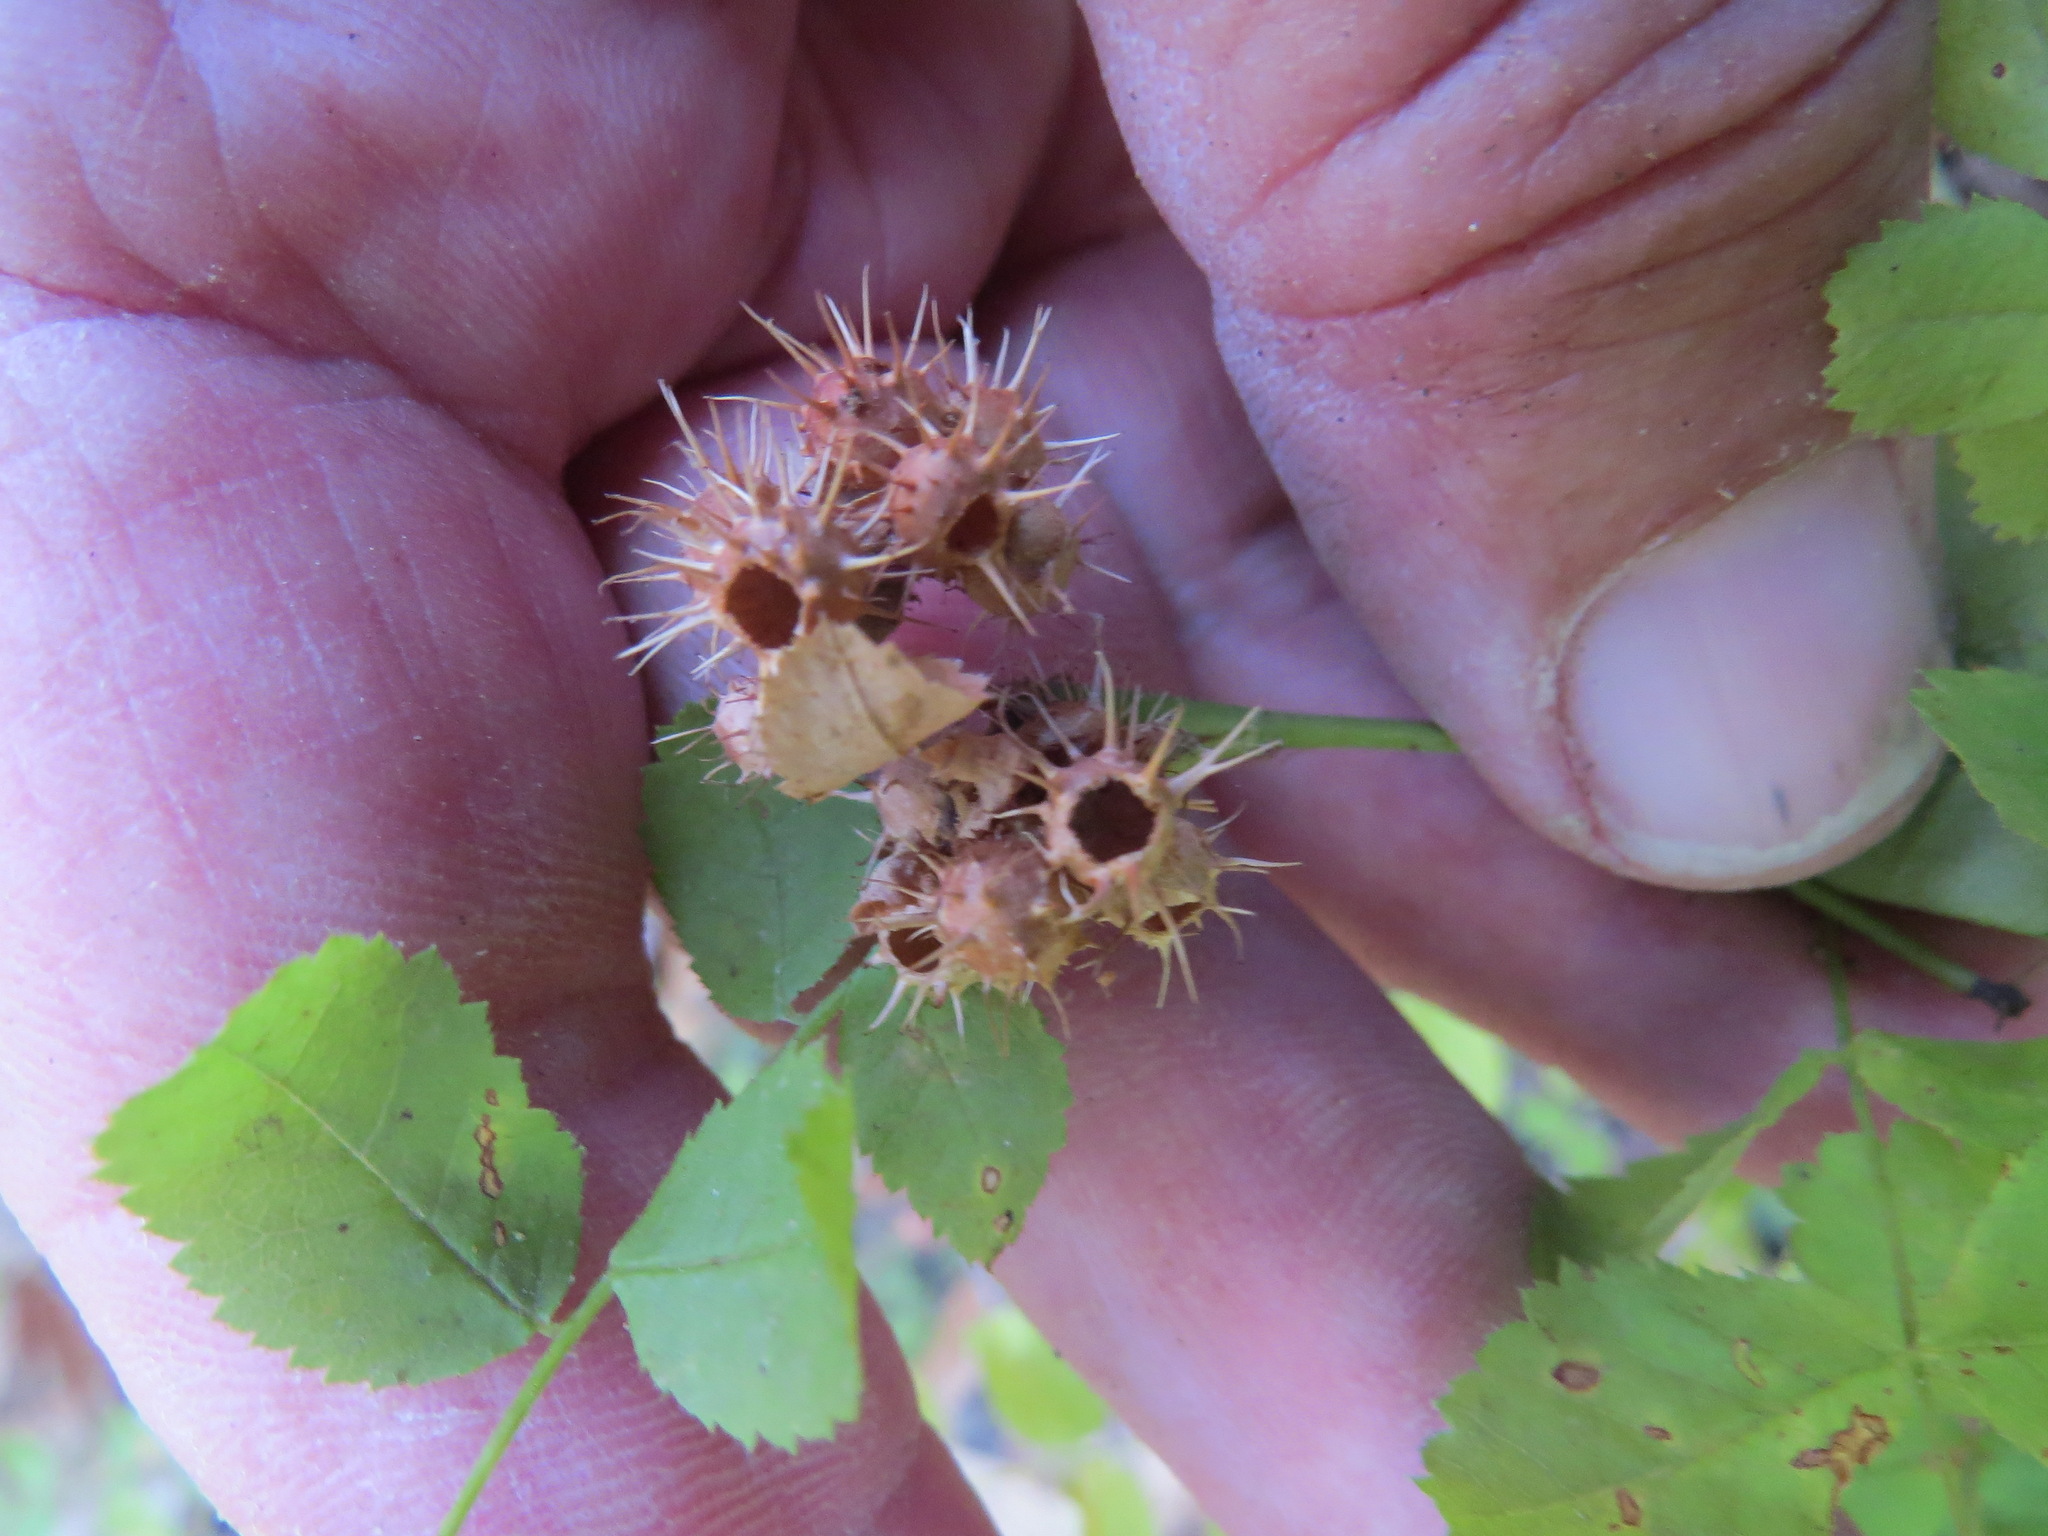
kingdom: Animalia
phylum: Arthropoda
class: Insecta
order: Hymenoptera
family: Cynipidae
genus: Diplolepis
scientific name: Diplolepis polita
